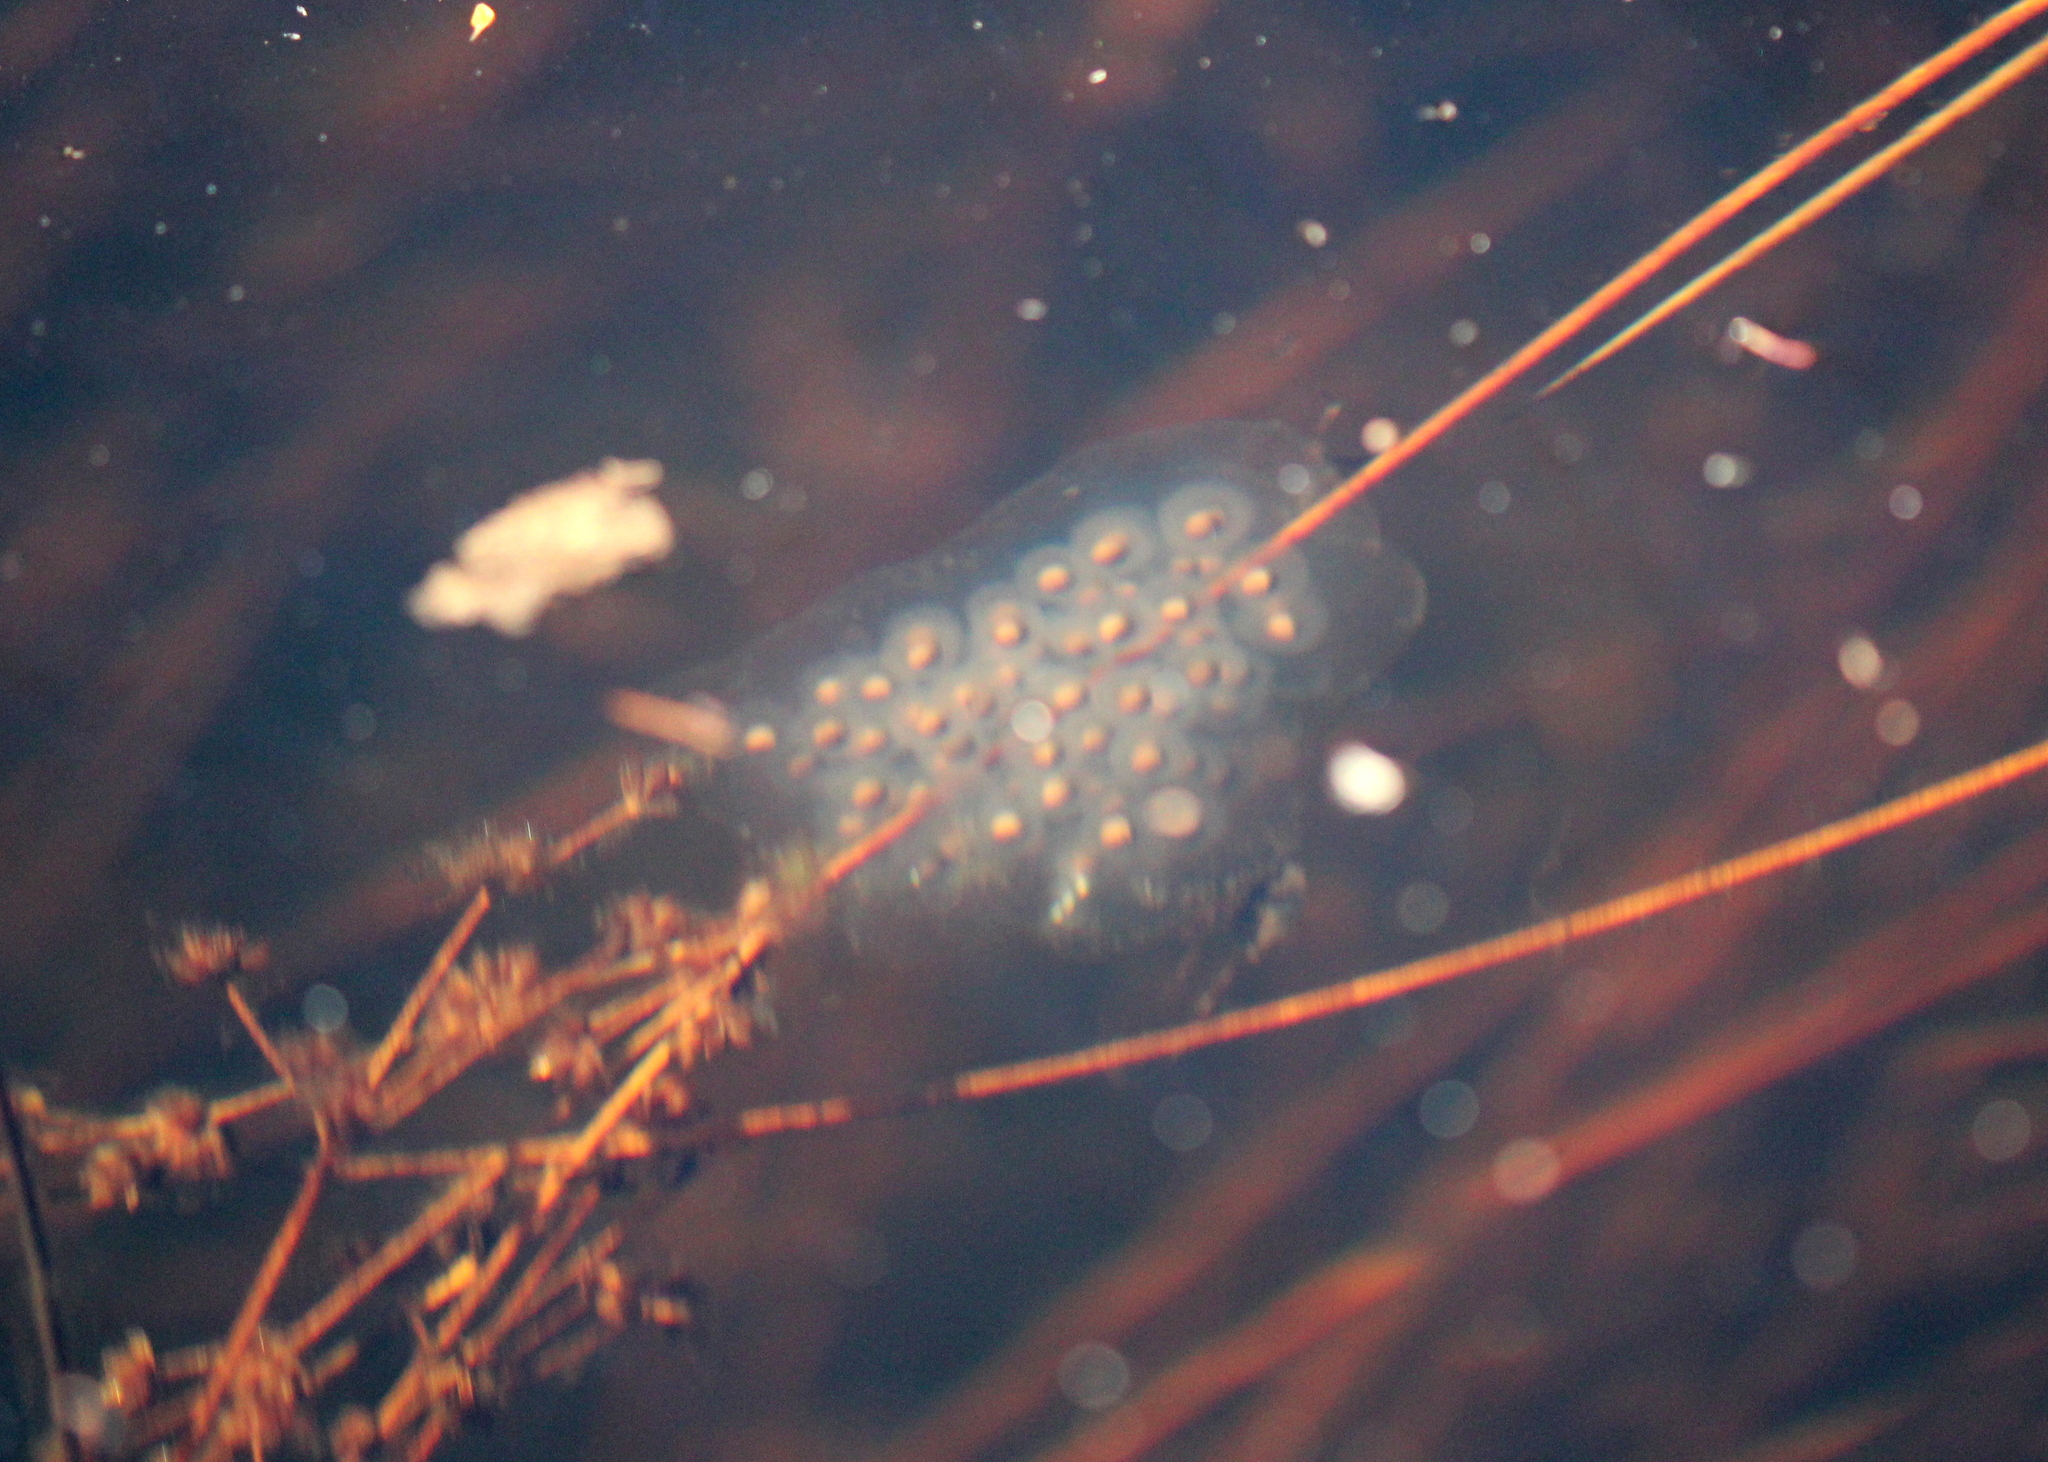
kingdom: Animalia
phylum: Chordata
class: Amphibia
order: Caudata
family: Ambystomatidae
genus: Ambystoma
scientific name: Ambystoma maculatum
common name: Spotted salamander
